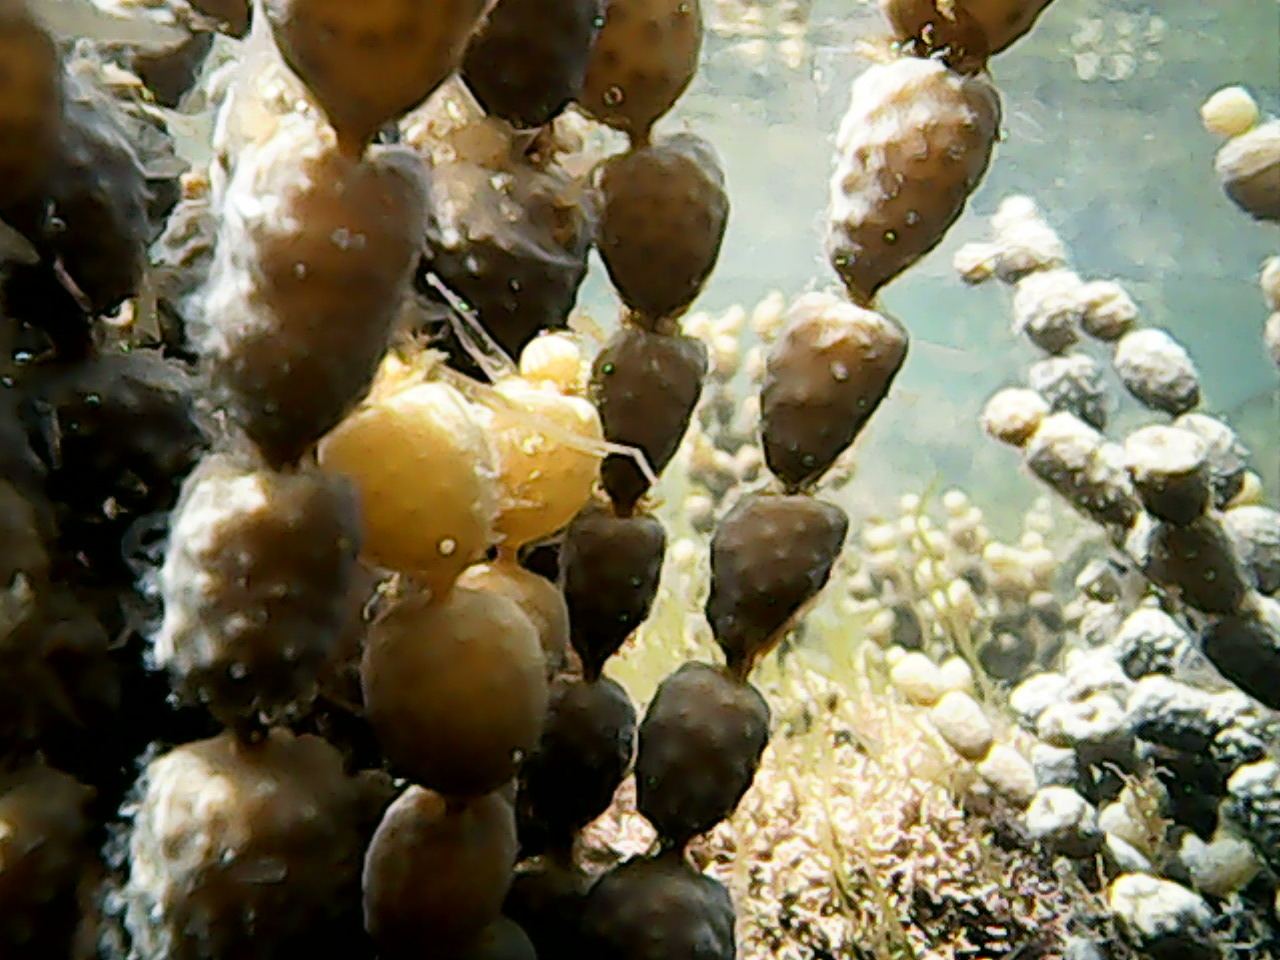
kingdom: Chromista
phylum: Ochrophyta
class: Phaeophyceae
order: Fucales
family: Hormosiraceae
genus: Hormosira
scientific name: Hormosira banksii
